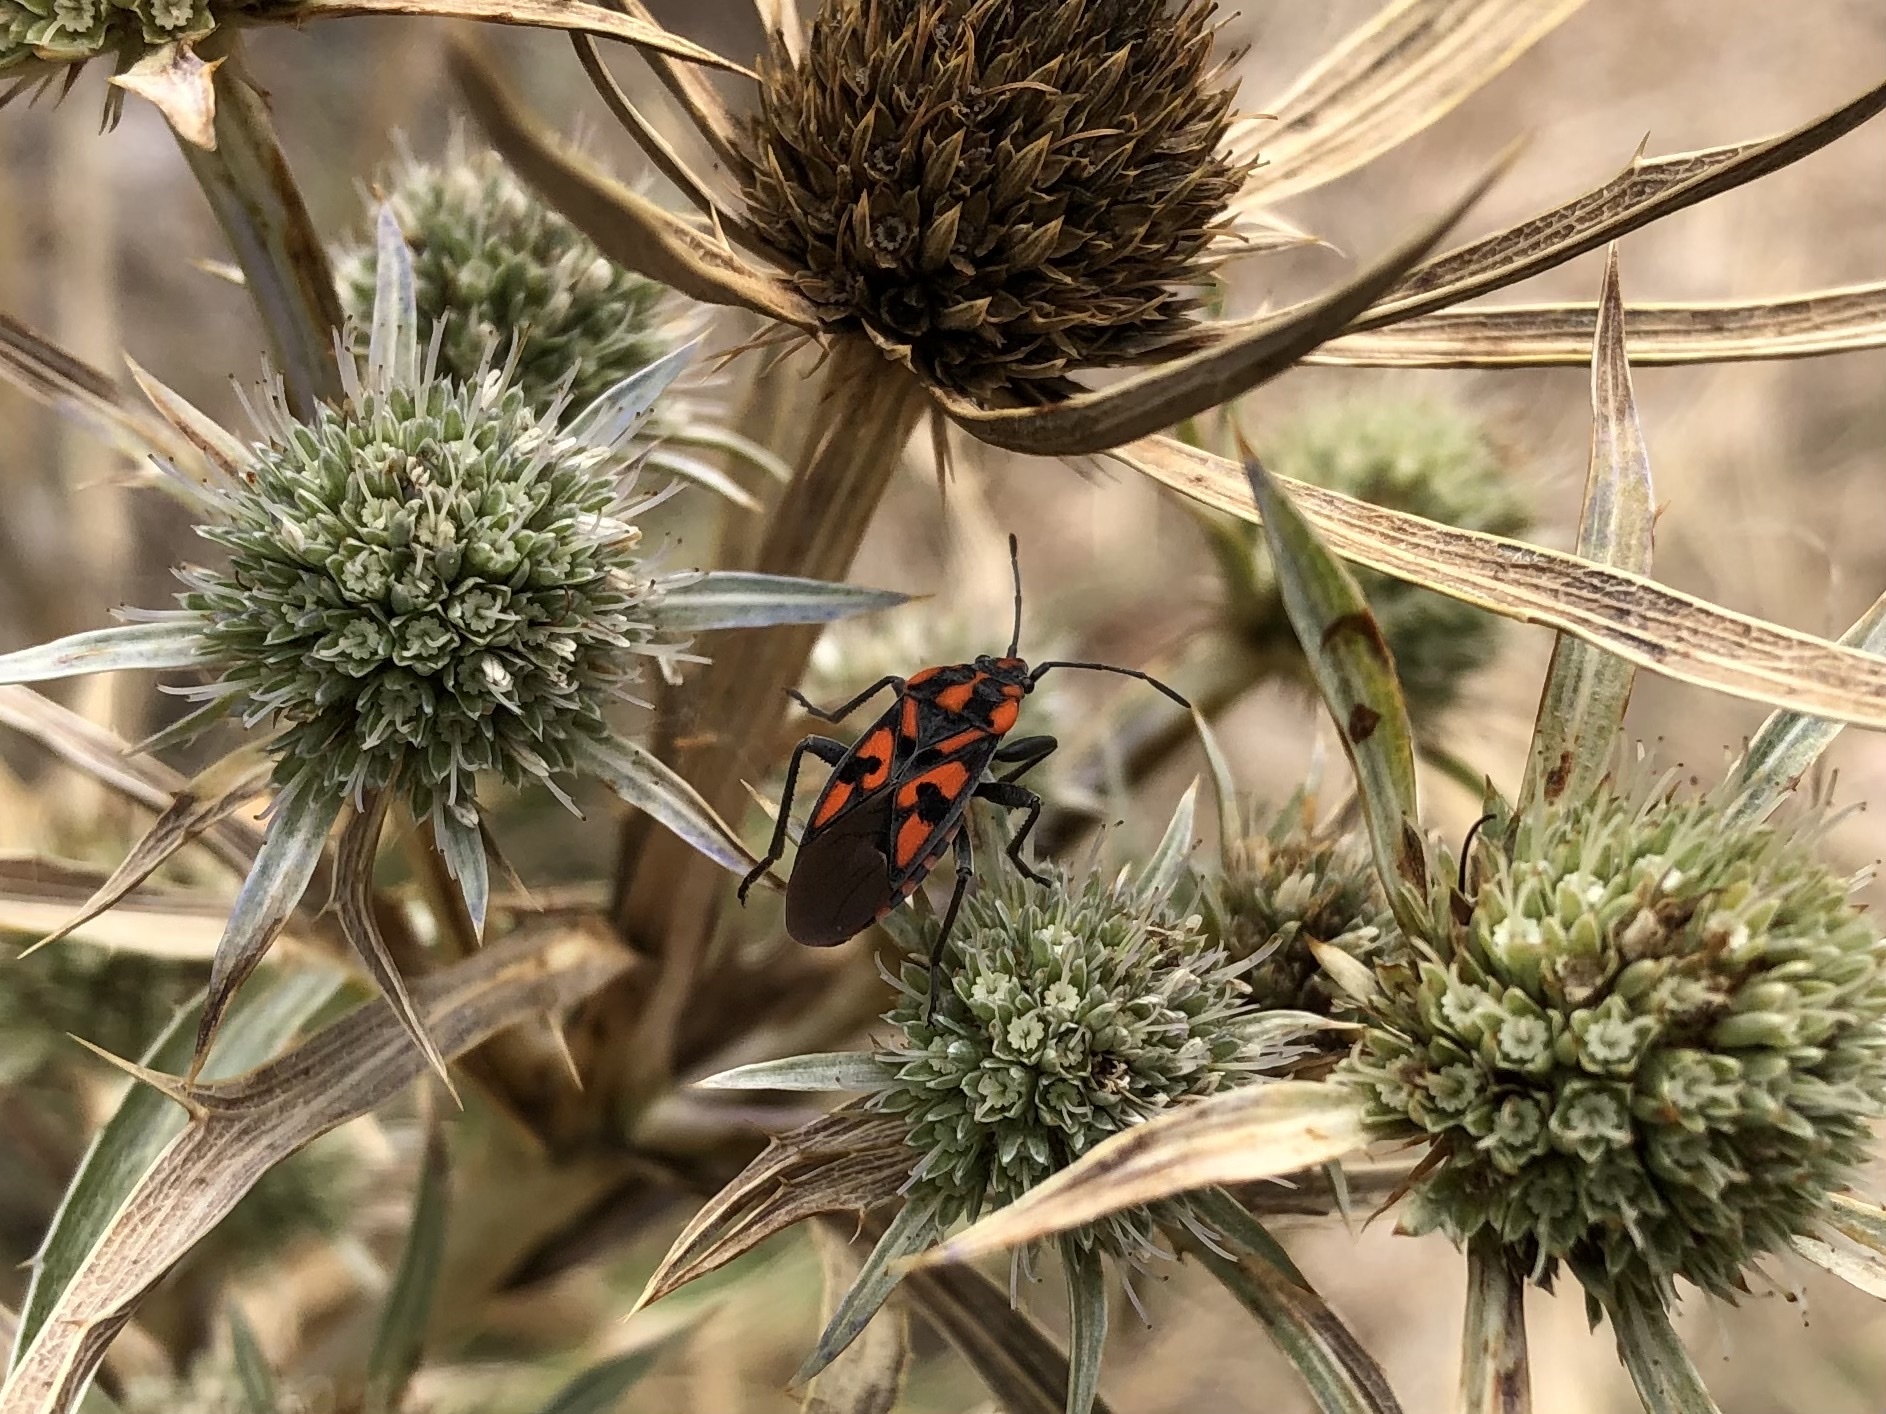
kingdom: Animalia
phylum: Arthropoda
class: Insecta
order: Hemiptera
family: Lygaeidae
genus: Spilostethus
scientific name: Spilostethus saxatilis
